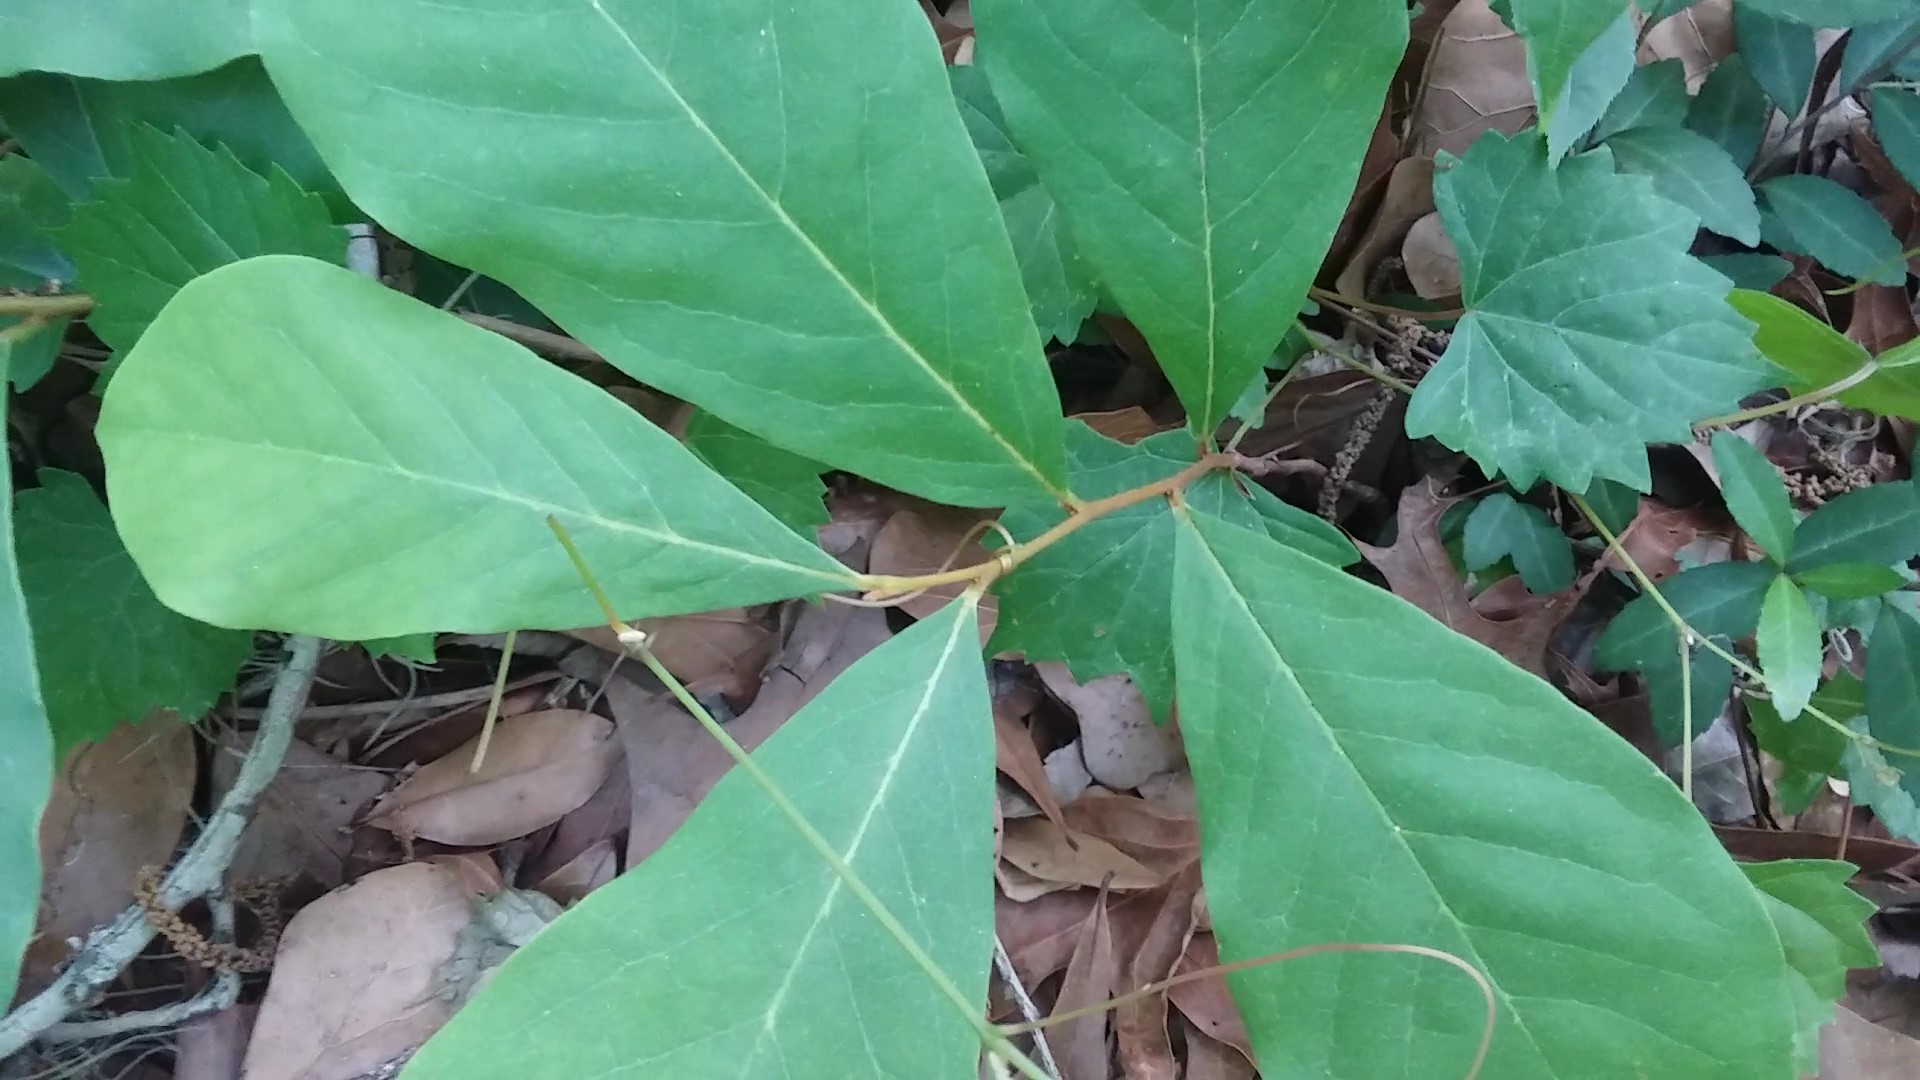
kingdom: Plantae
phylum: Tracheophyta
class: Magnoliopsida
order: Magnoliales
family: Annonaceae
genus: Asimina
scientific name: Asimina parviflora
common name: Dwarf pawpaw
